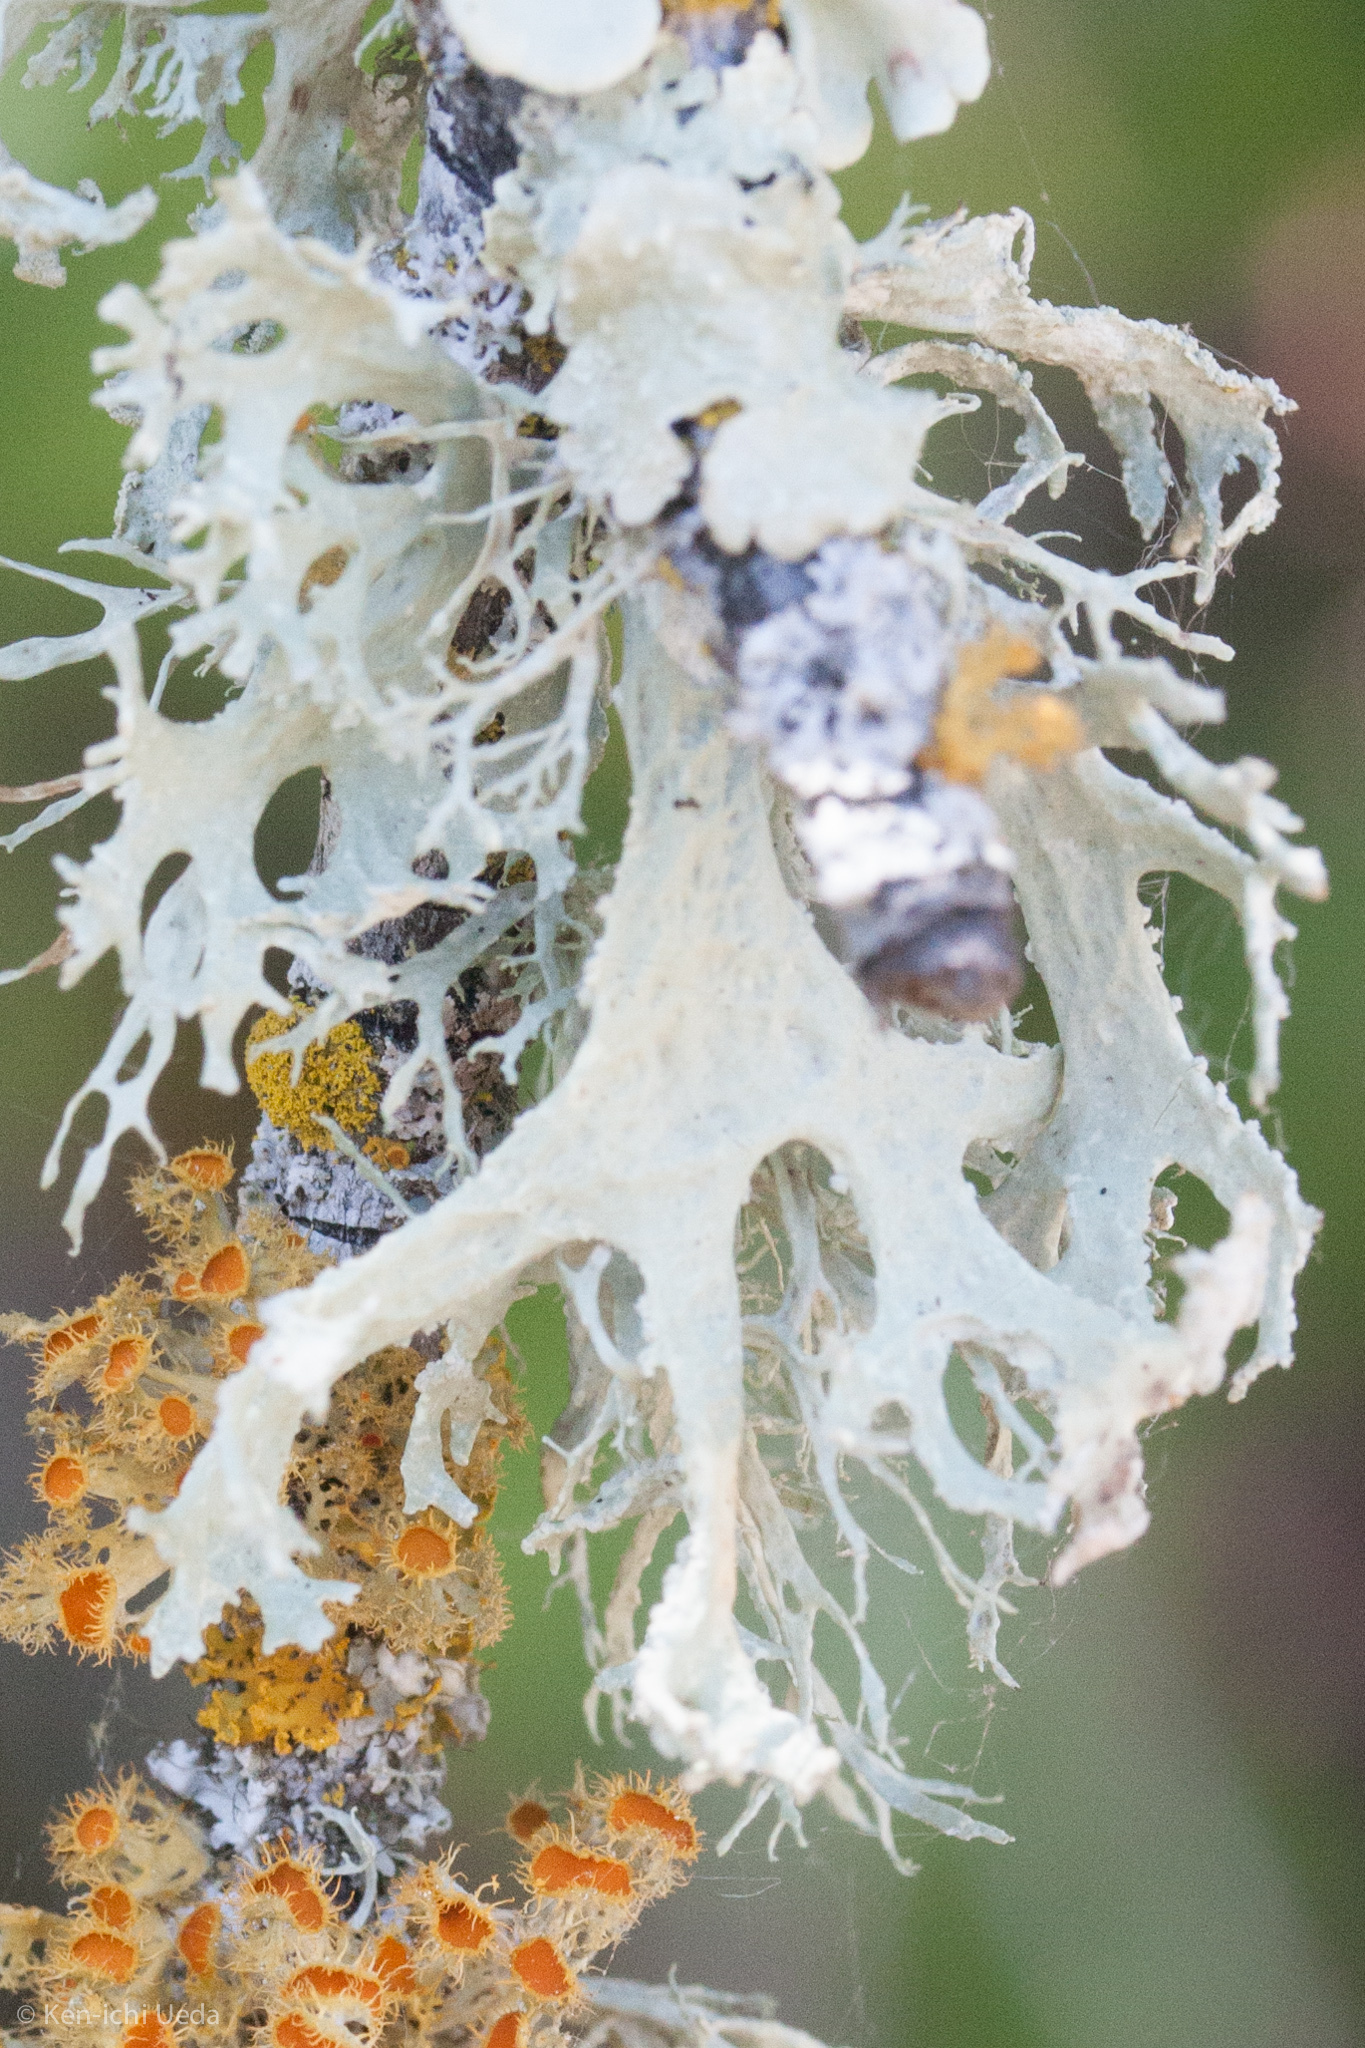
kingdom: Fungi
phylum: Ascomycota
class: Lecanoromycetes
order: Lecanorales
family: Parmeliaceae
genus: Evernia
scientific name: Evernia prunastri
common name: Oak moss
